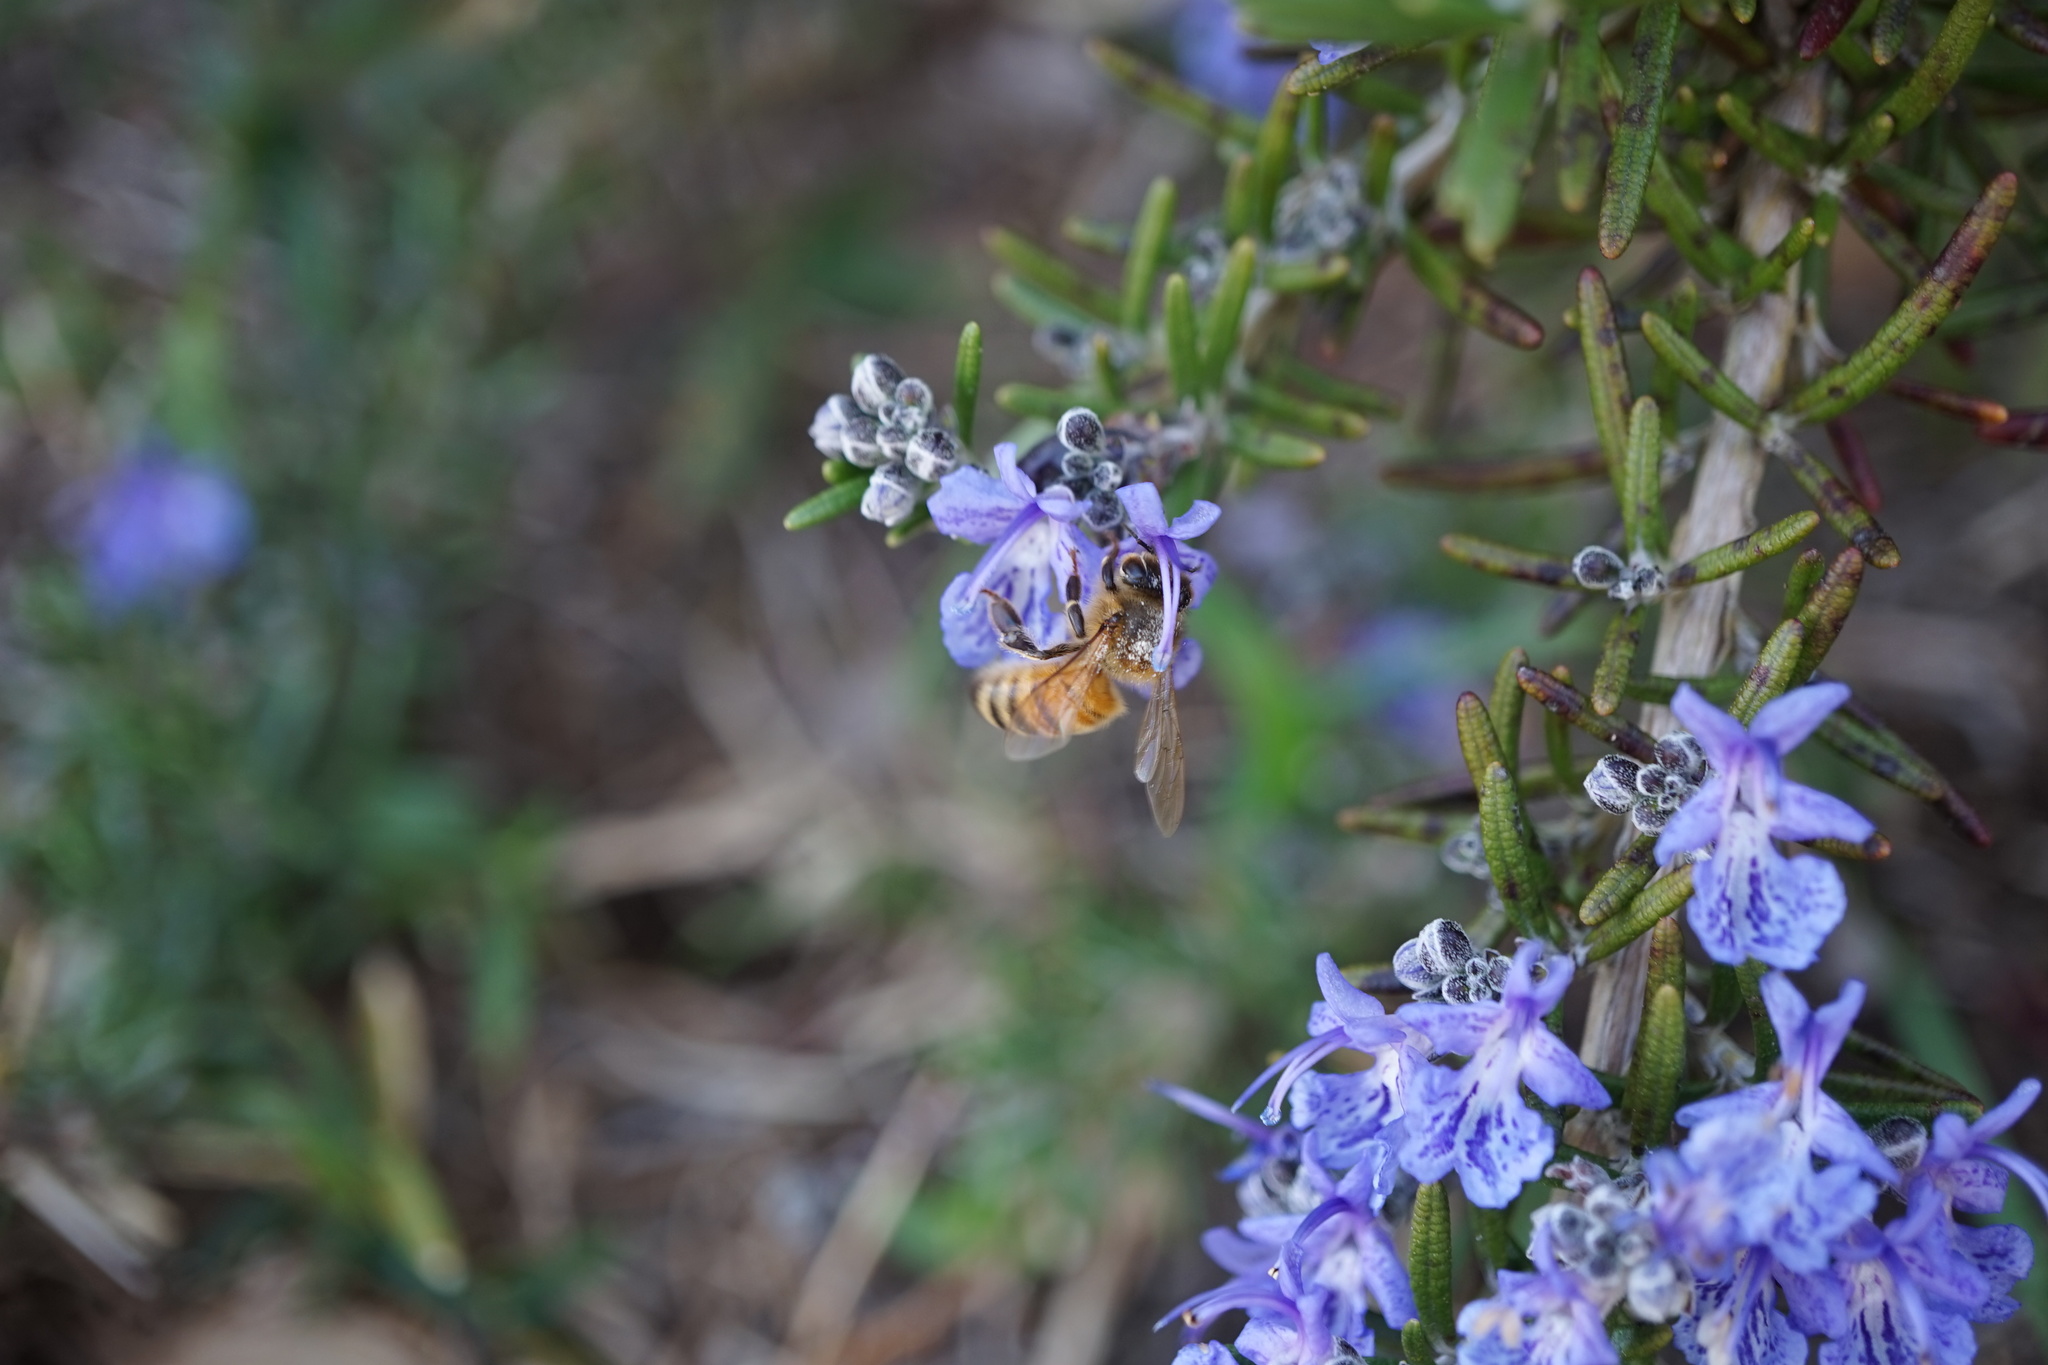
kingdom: Animalia
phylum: Arthropoda
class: Insecta
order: Hymenoptera
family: Apidae
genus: Apis
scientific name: Apis mellifera
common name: Honey bee
